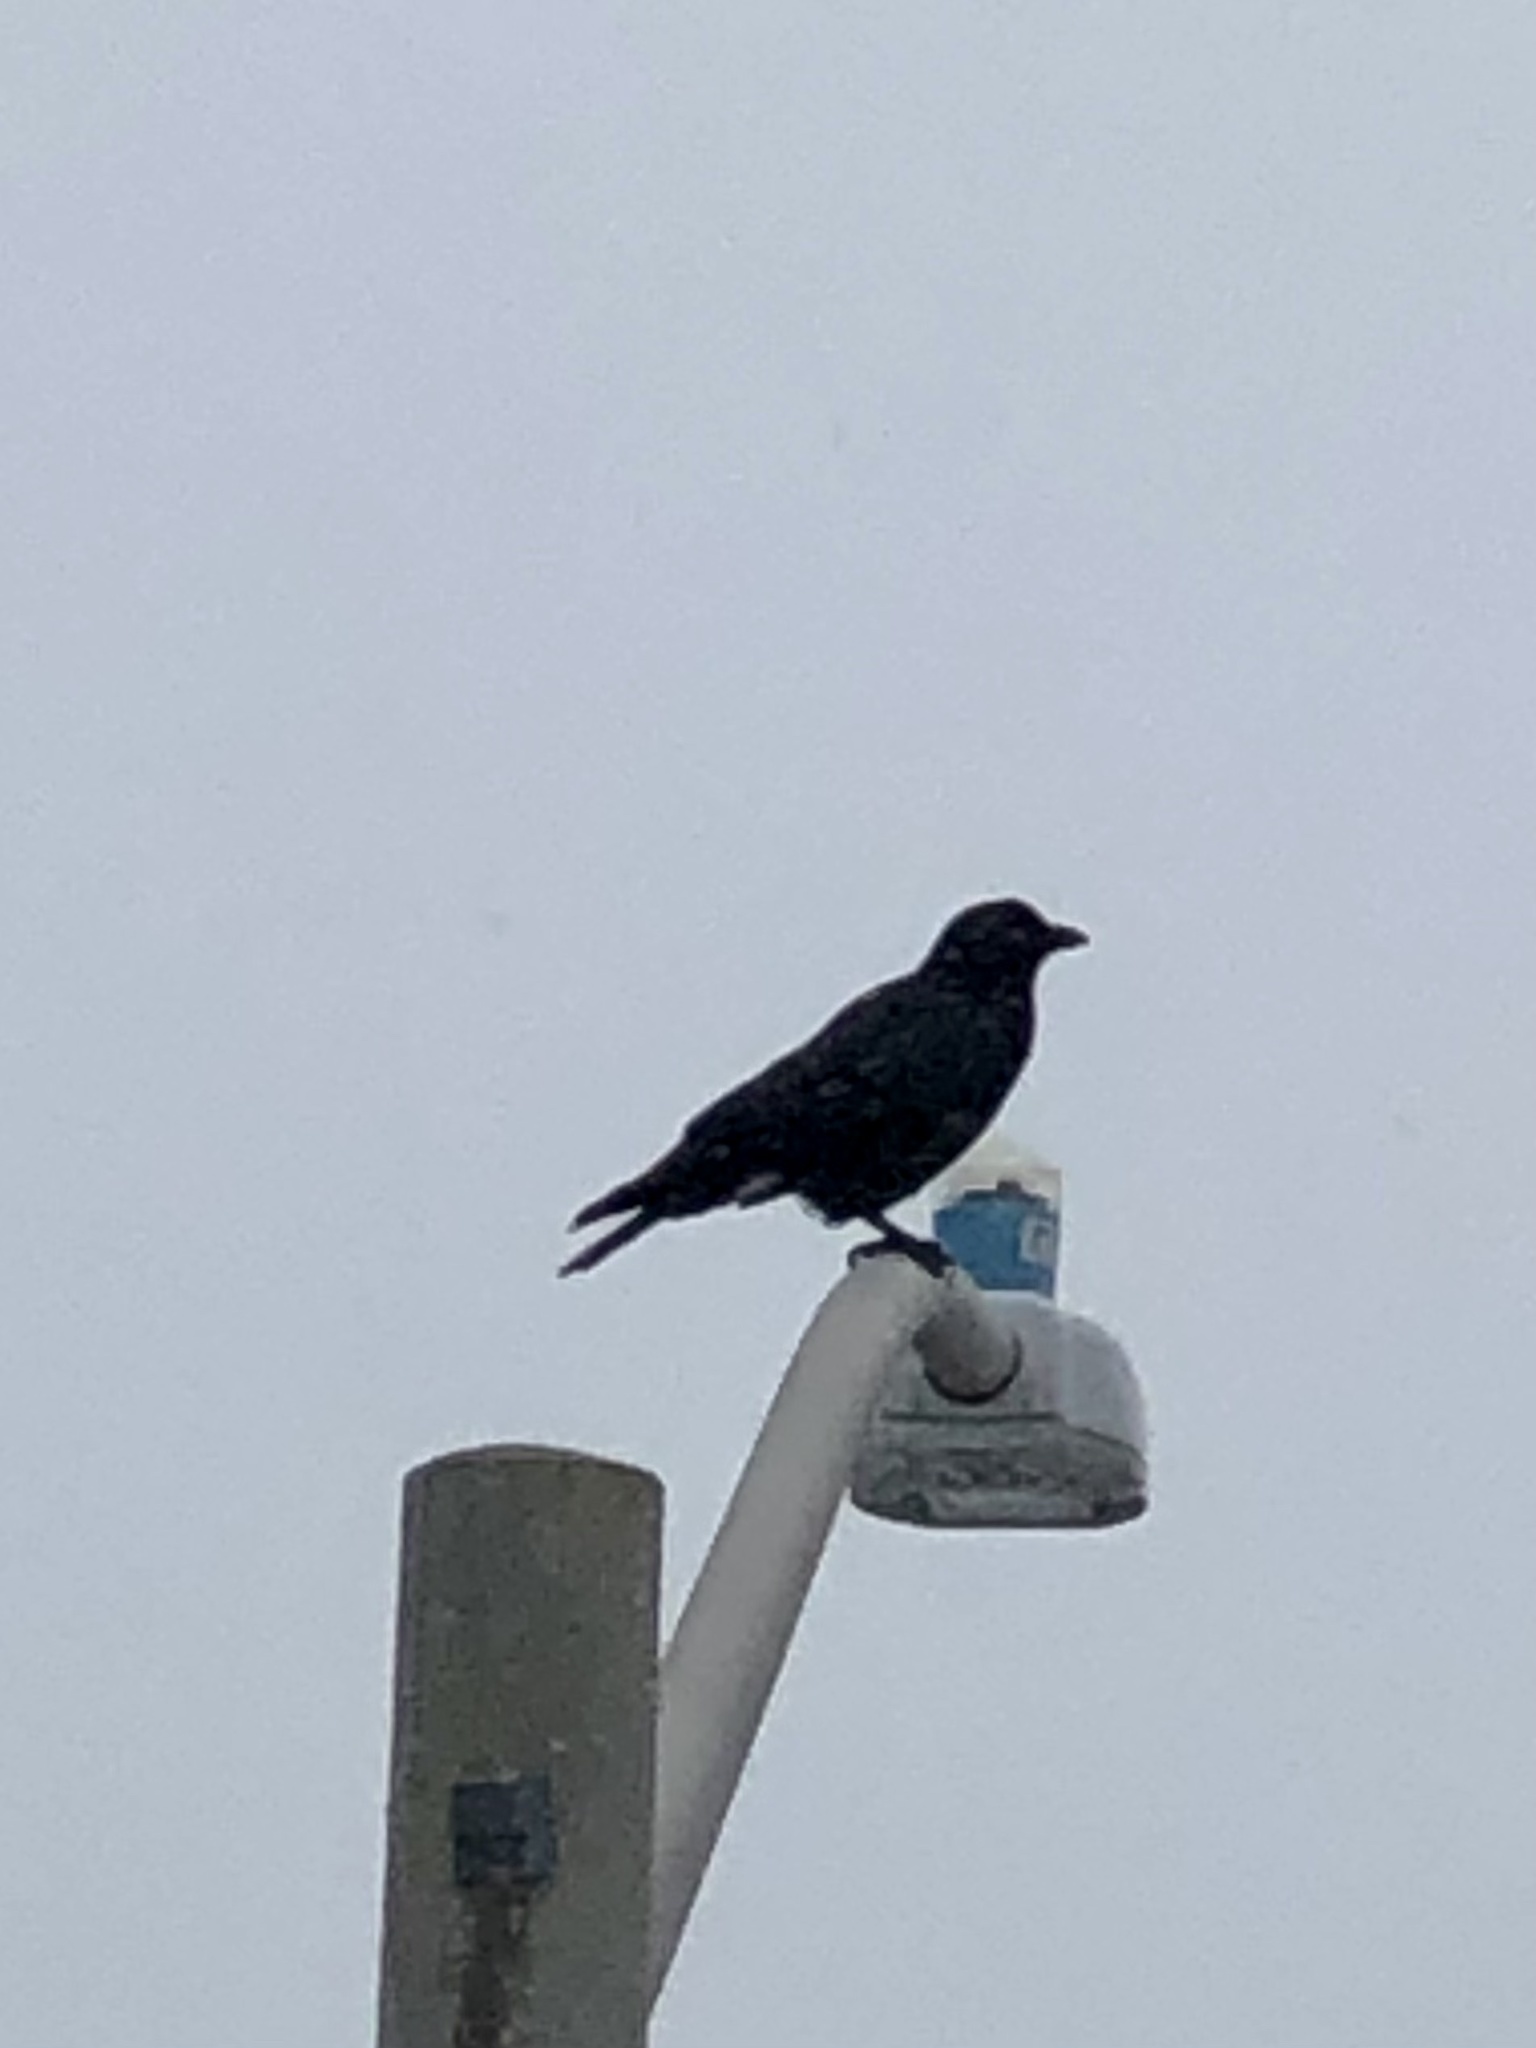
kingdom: Animalia
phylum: Chordata
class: Aves
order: Passeriformes
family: Corvidae
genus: Corvus
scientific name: Corvus brachyrhynchos
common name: American crow
